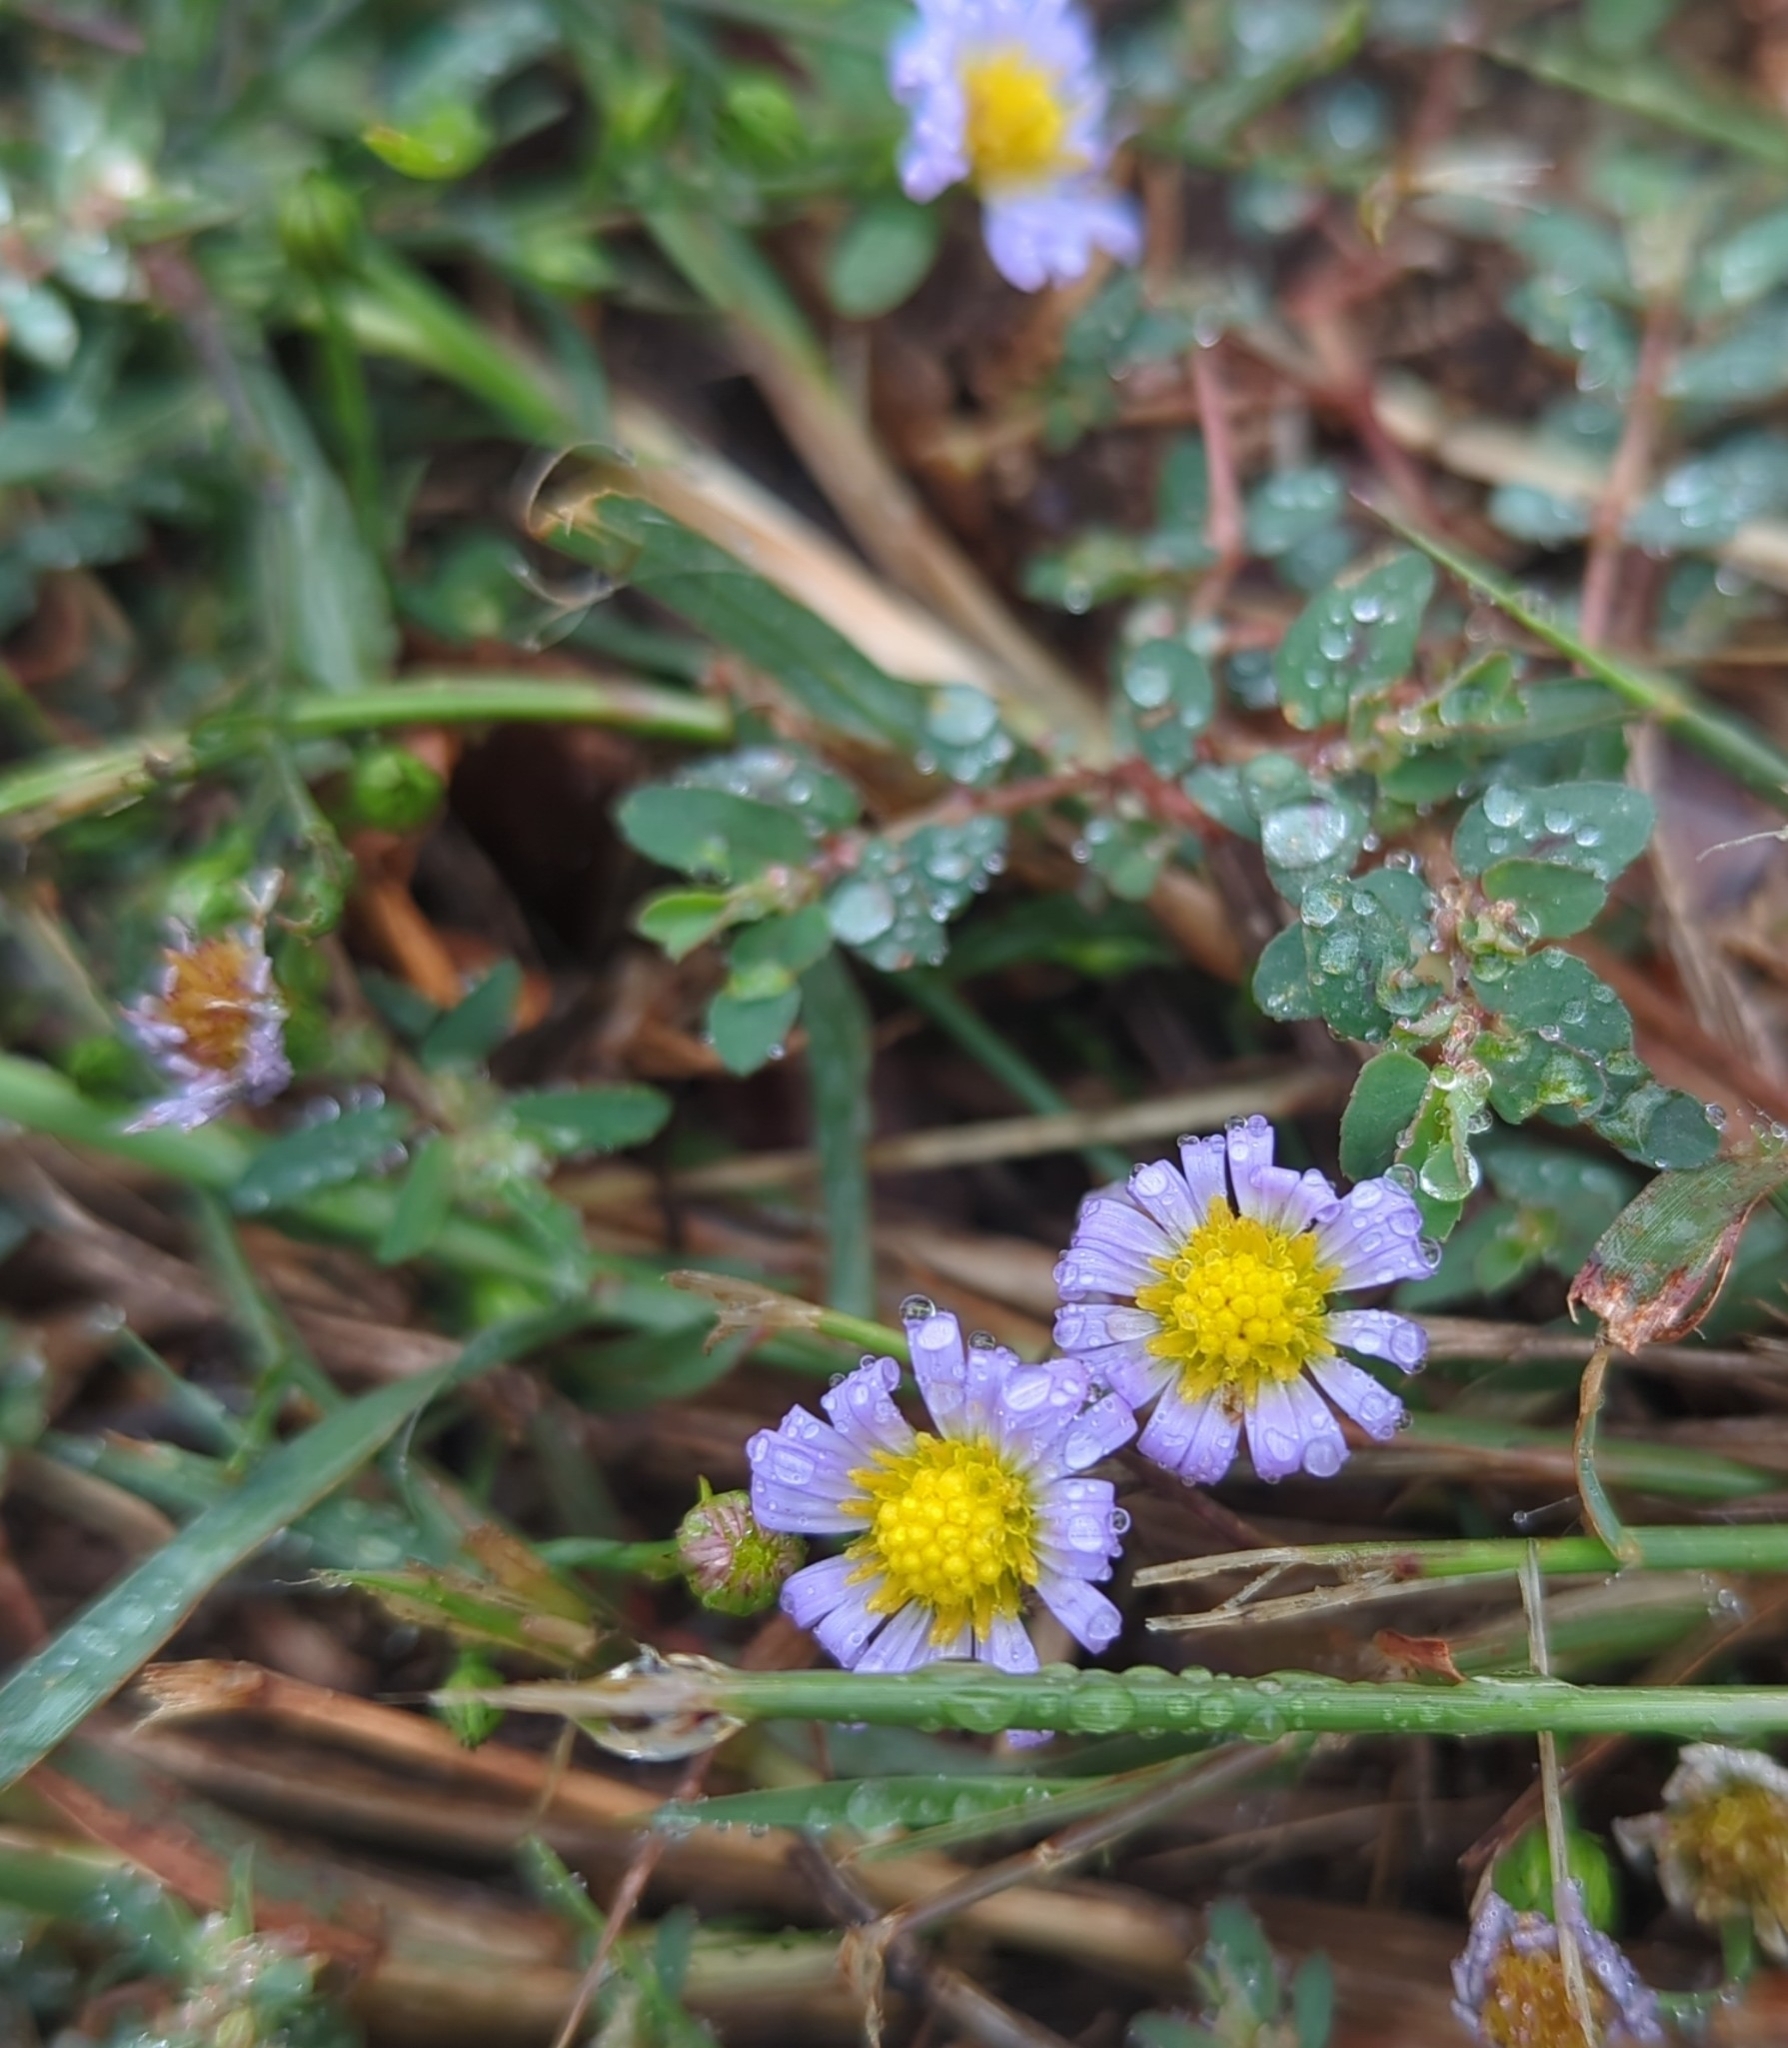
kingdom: Plantae
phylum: Tracheophyta
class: Magnoliopsida
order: Asterales
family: Asteraceae
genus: Symphyotrichum
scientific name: Symphyotrichum divaricatum
